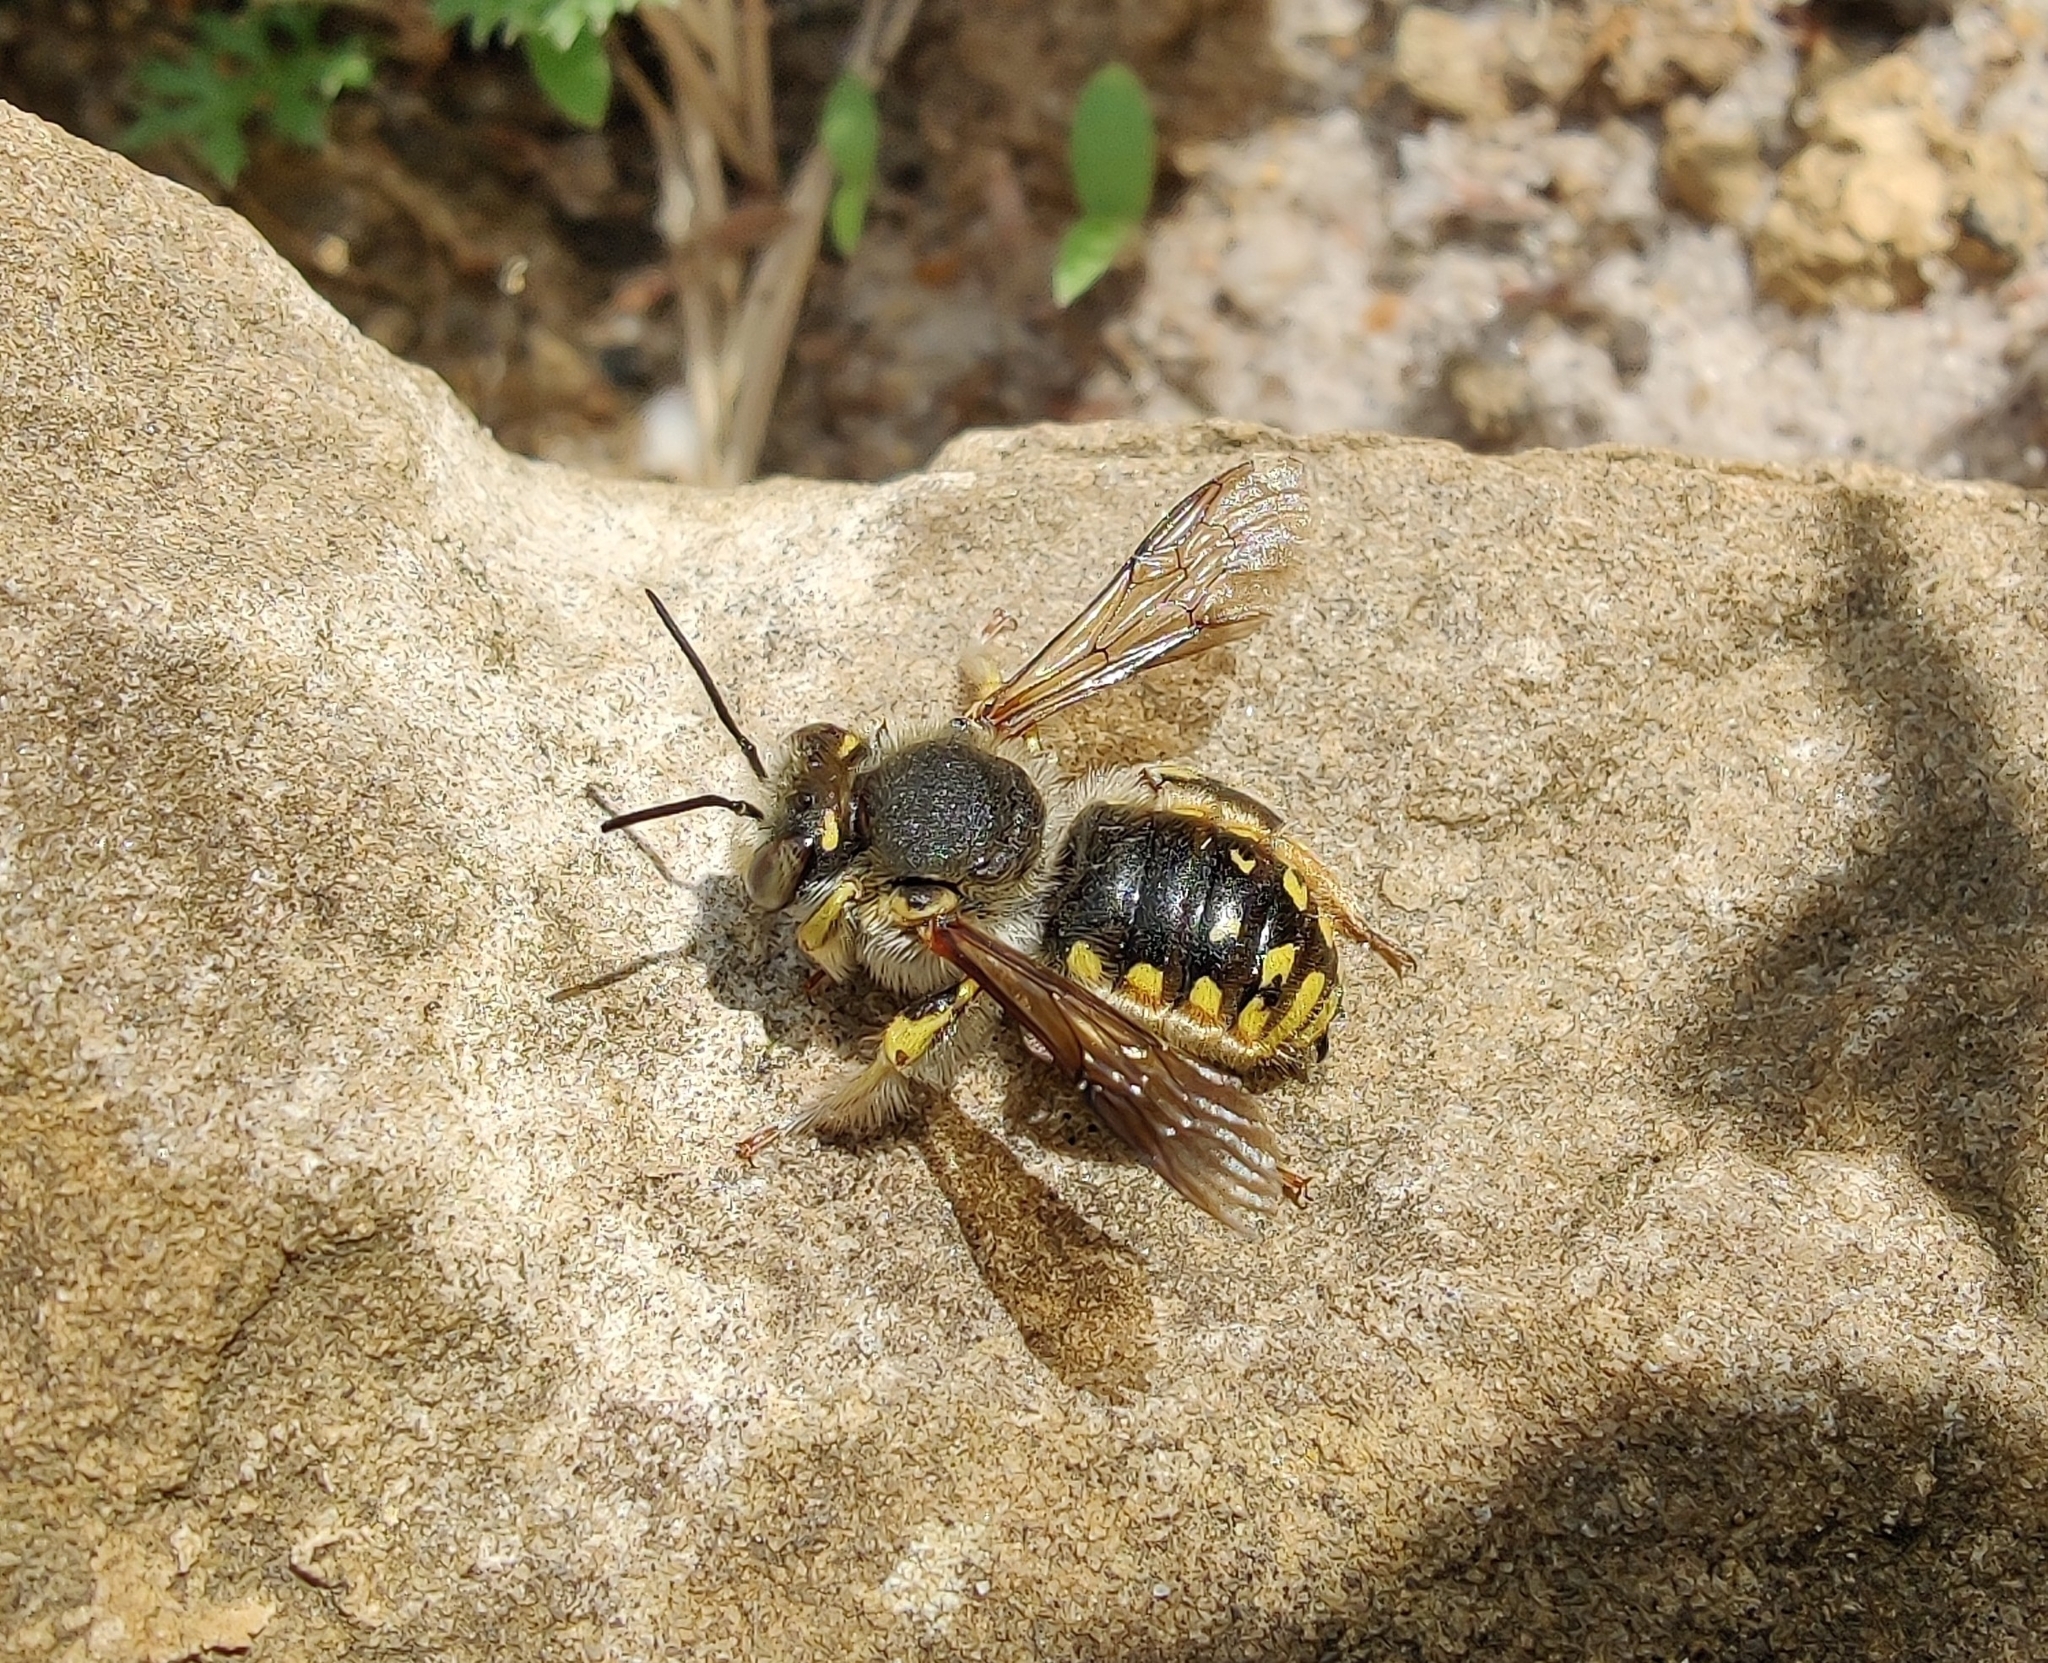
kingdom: Animalia
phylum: Arthropoda
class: Insecta
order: Hymenoptera
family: Megachilidae
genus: Anthidium
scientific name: Anthidium manicatum
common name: Wool carder bee
